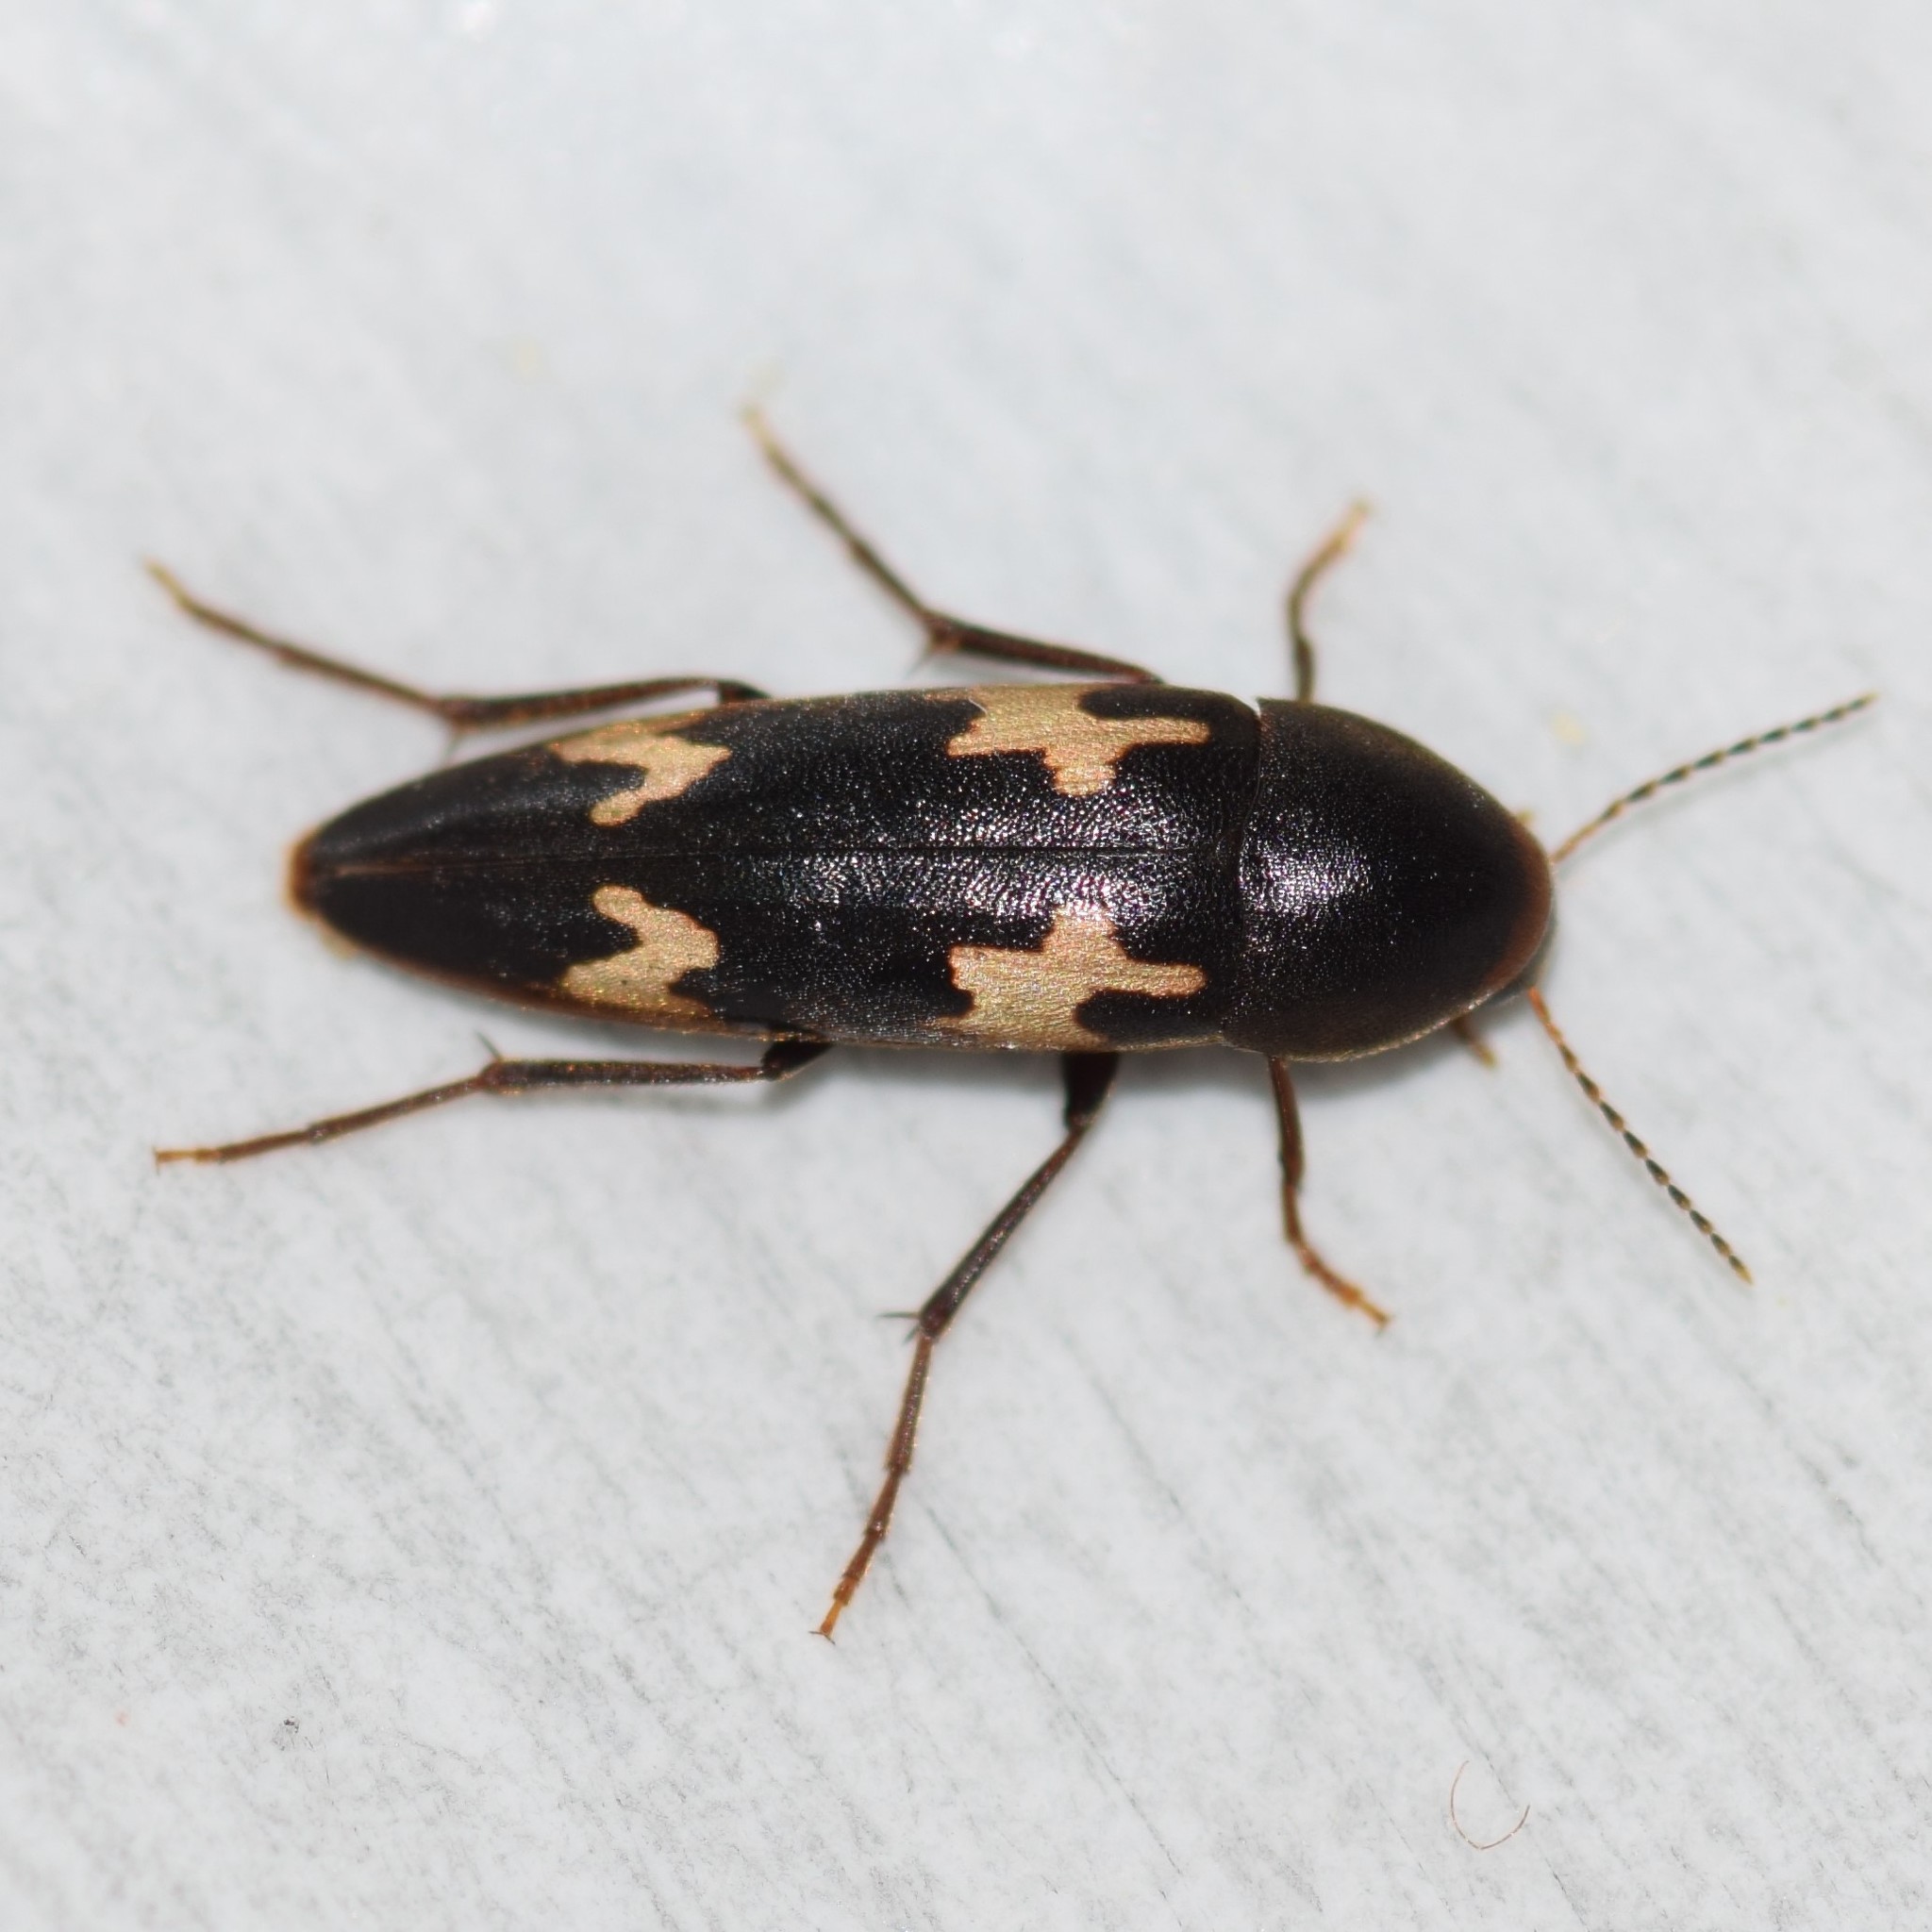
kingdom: Animalia
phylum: Arthropoda
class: Insecta
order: Coleoptera
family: Melandryidae
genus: Dircaea
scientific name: Dircaea liturata
